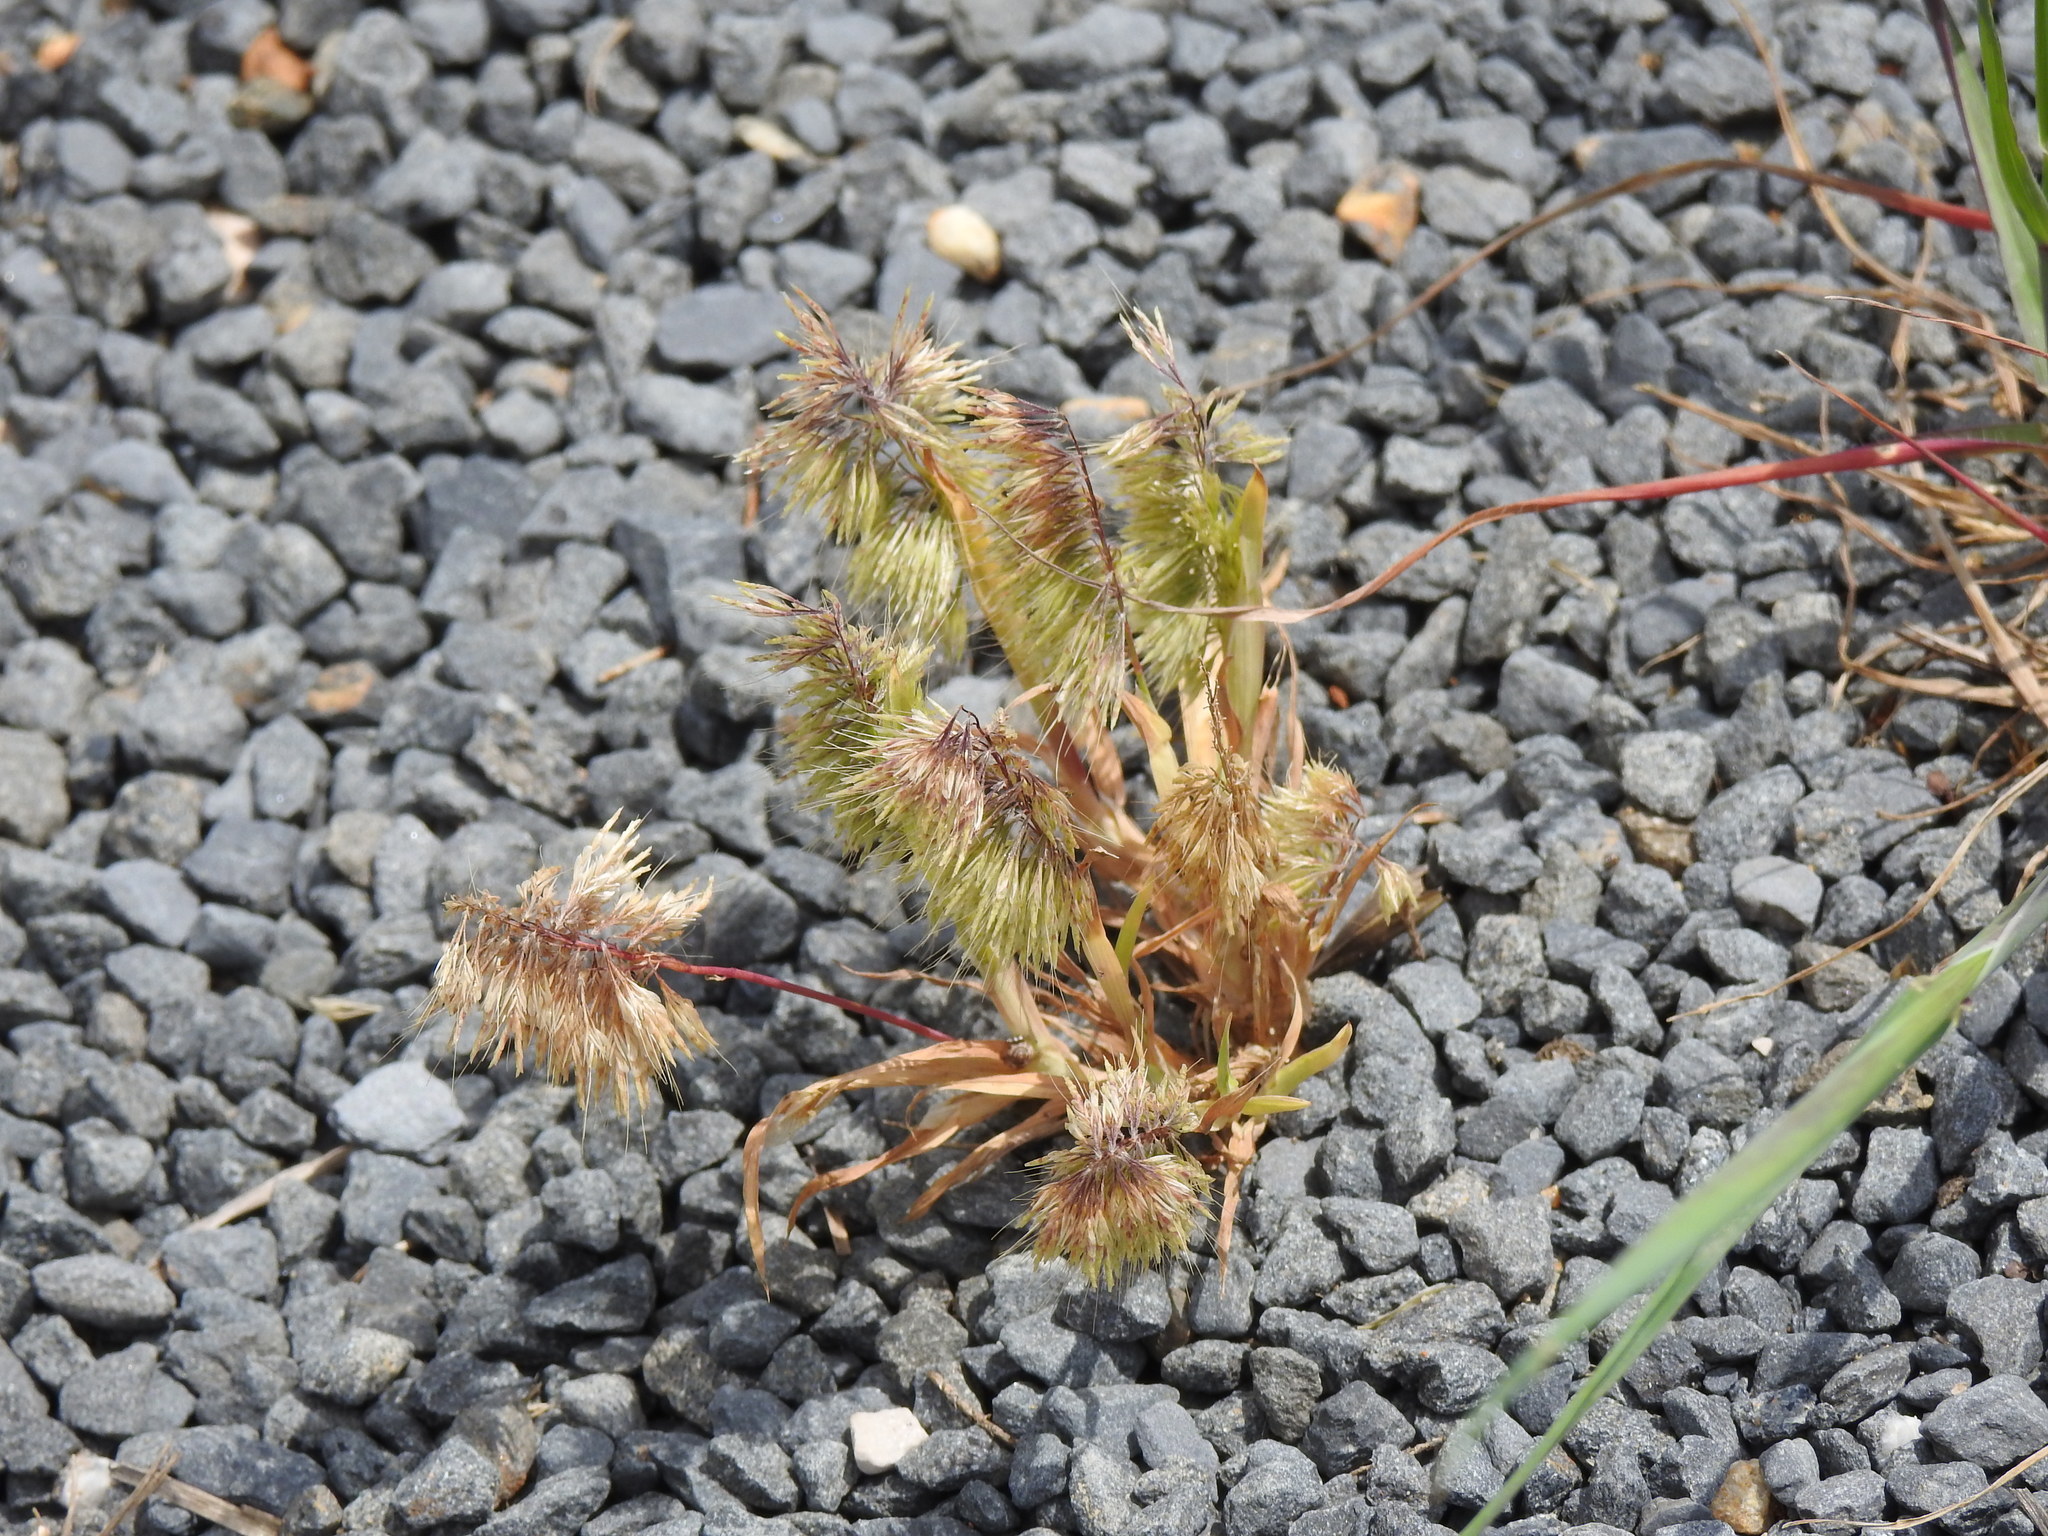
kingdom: Plantae
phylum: Tracheophyta
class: Liliopsida
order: Poales
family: Poaceae
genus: Lamarckia
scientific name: Lamarckia aurea
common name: Golden dog's-tail
